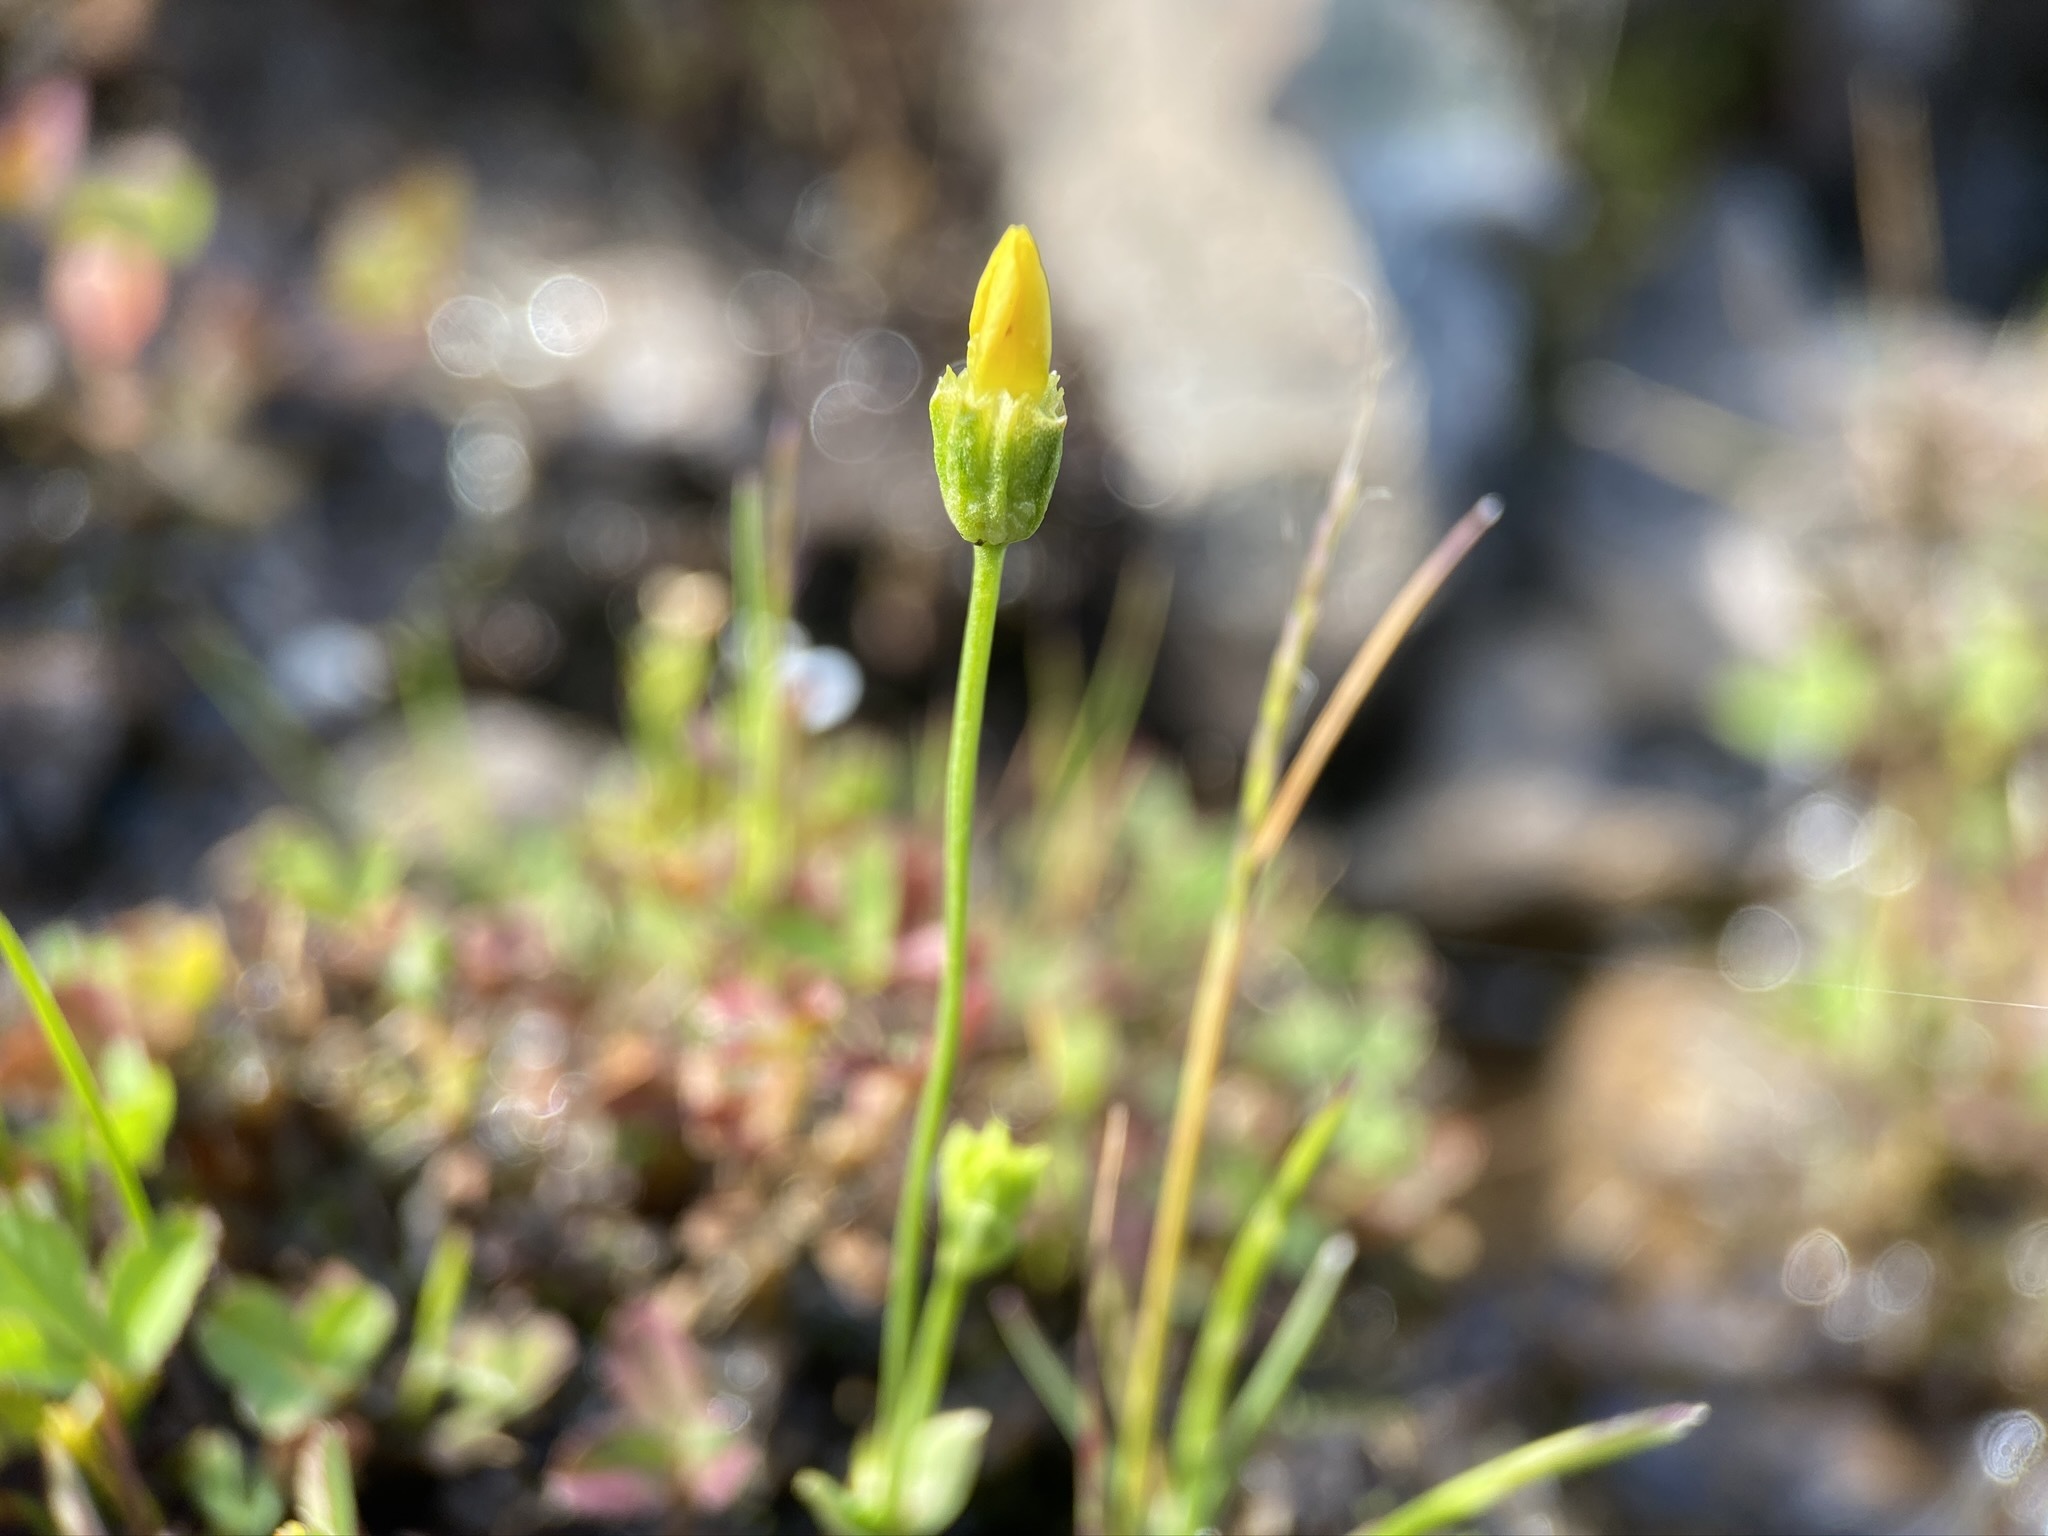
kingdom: Plantae
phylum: Tracheophyta
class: Magnoliopsida
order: Gentianales
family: Gentianaceae
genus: Microcala
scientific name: Microcala quadrangularis
